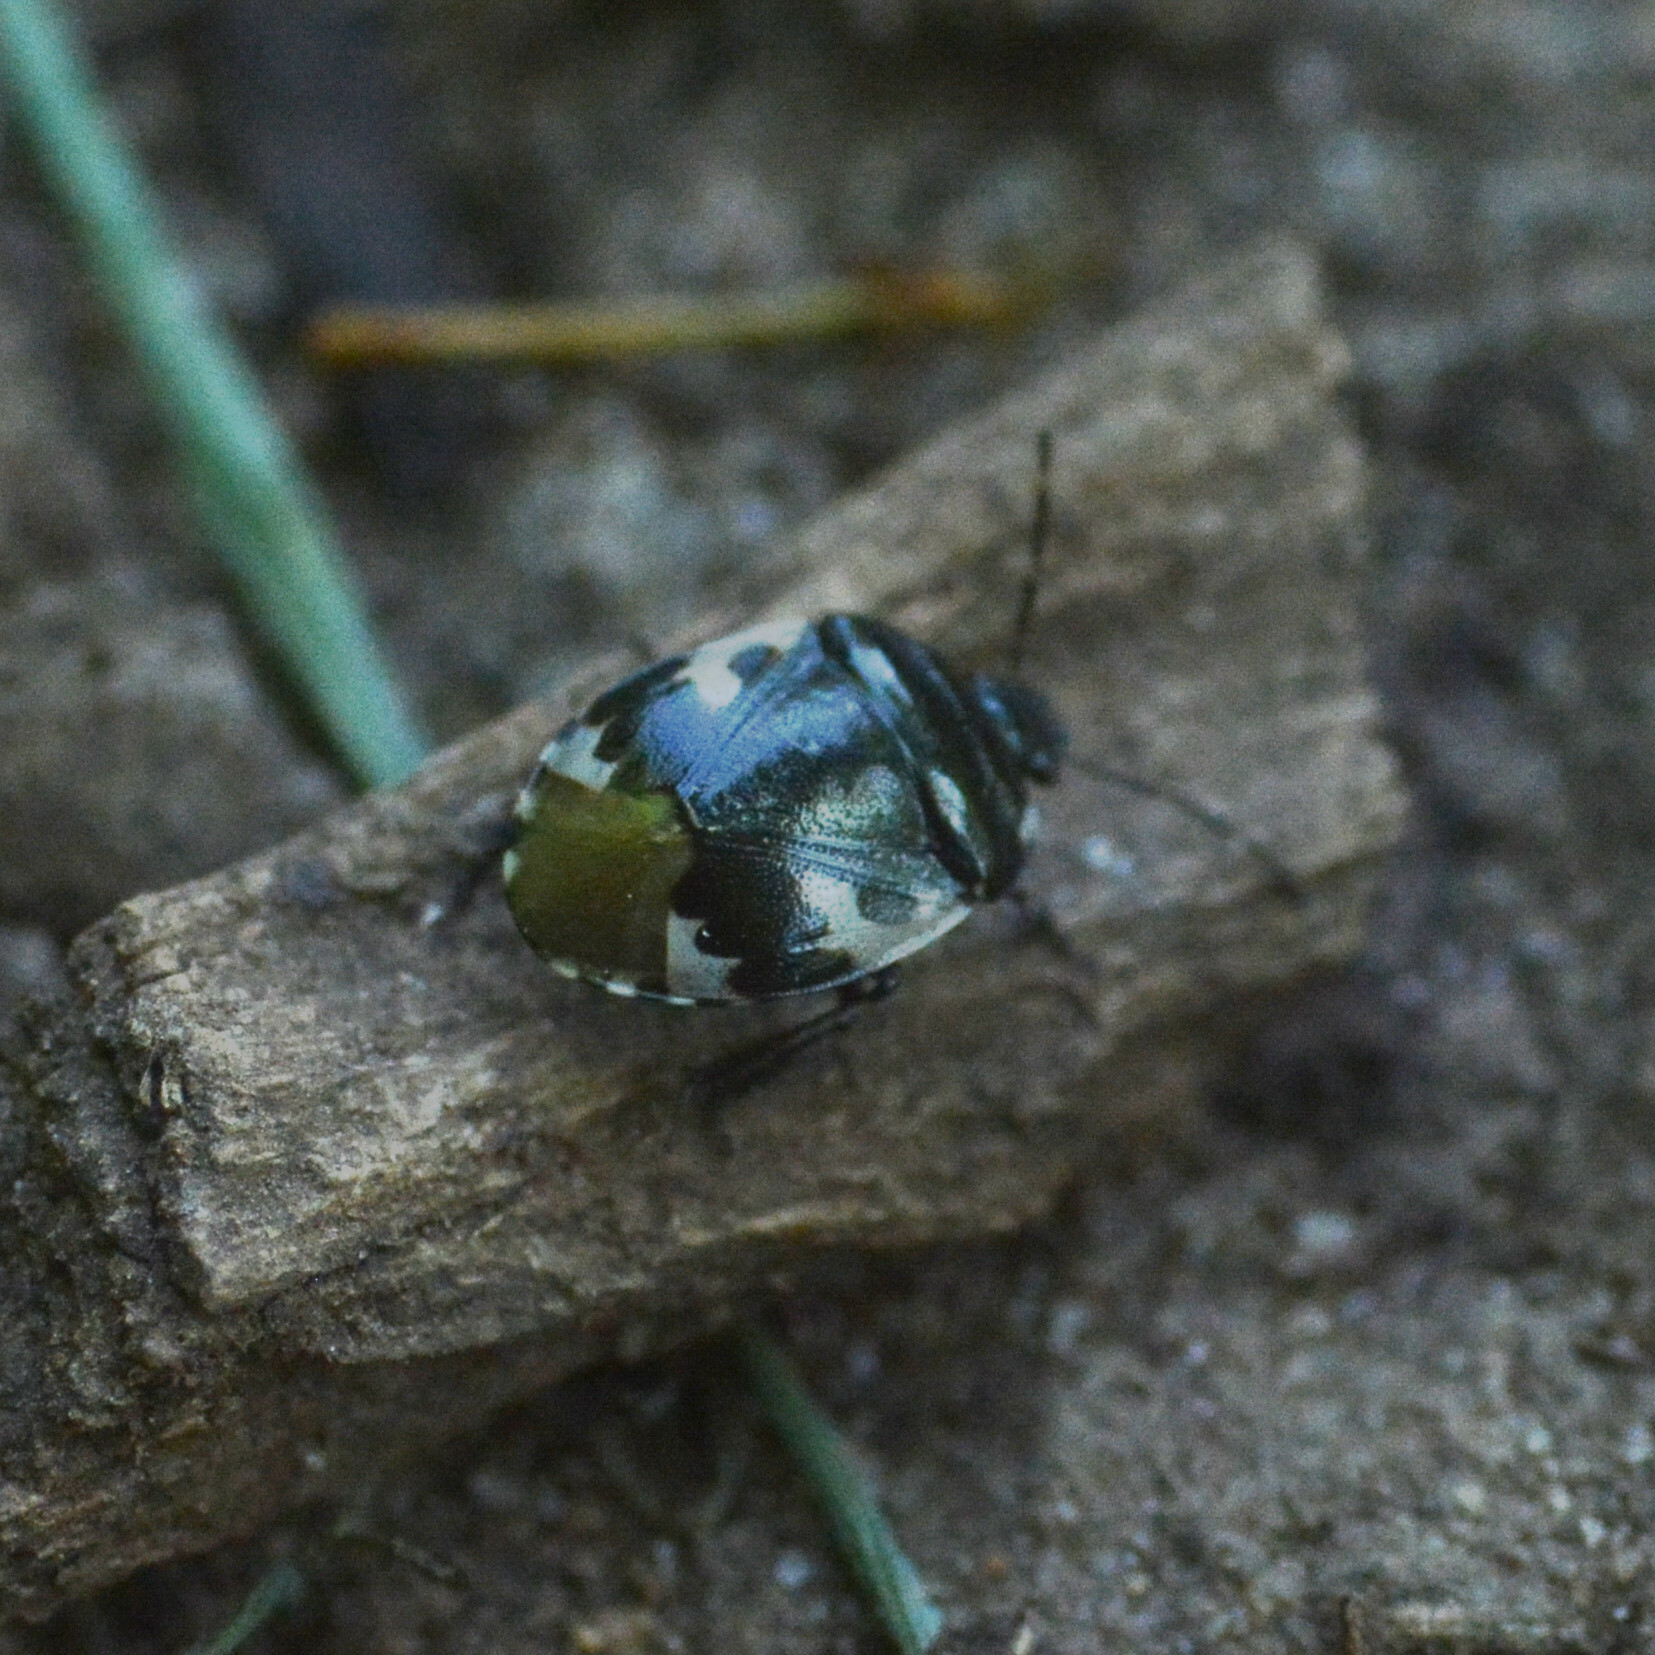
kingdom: Animalia
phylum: Arthropoda
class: Insecta
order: Hemiptera
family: Cydnidae
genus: Tritomegas
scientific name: Tritomegas bicolor
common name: Pied shieldbug
